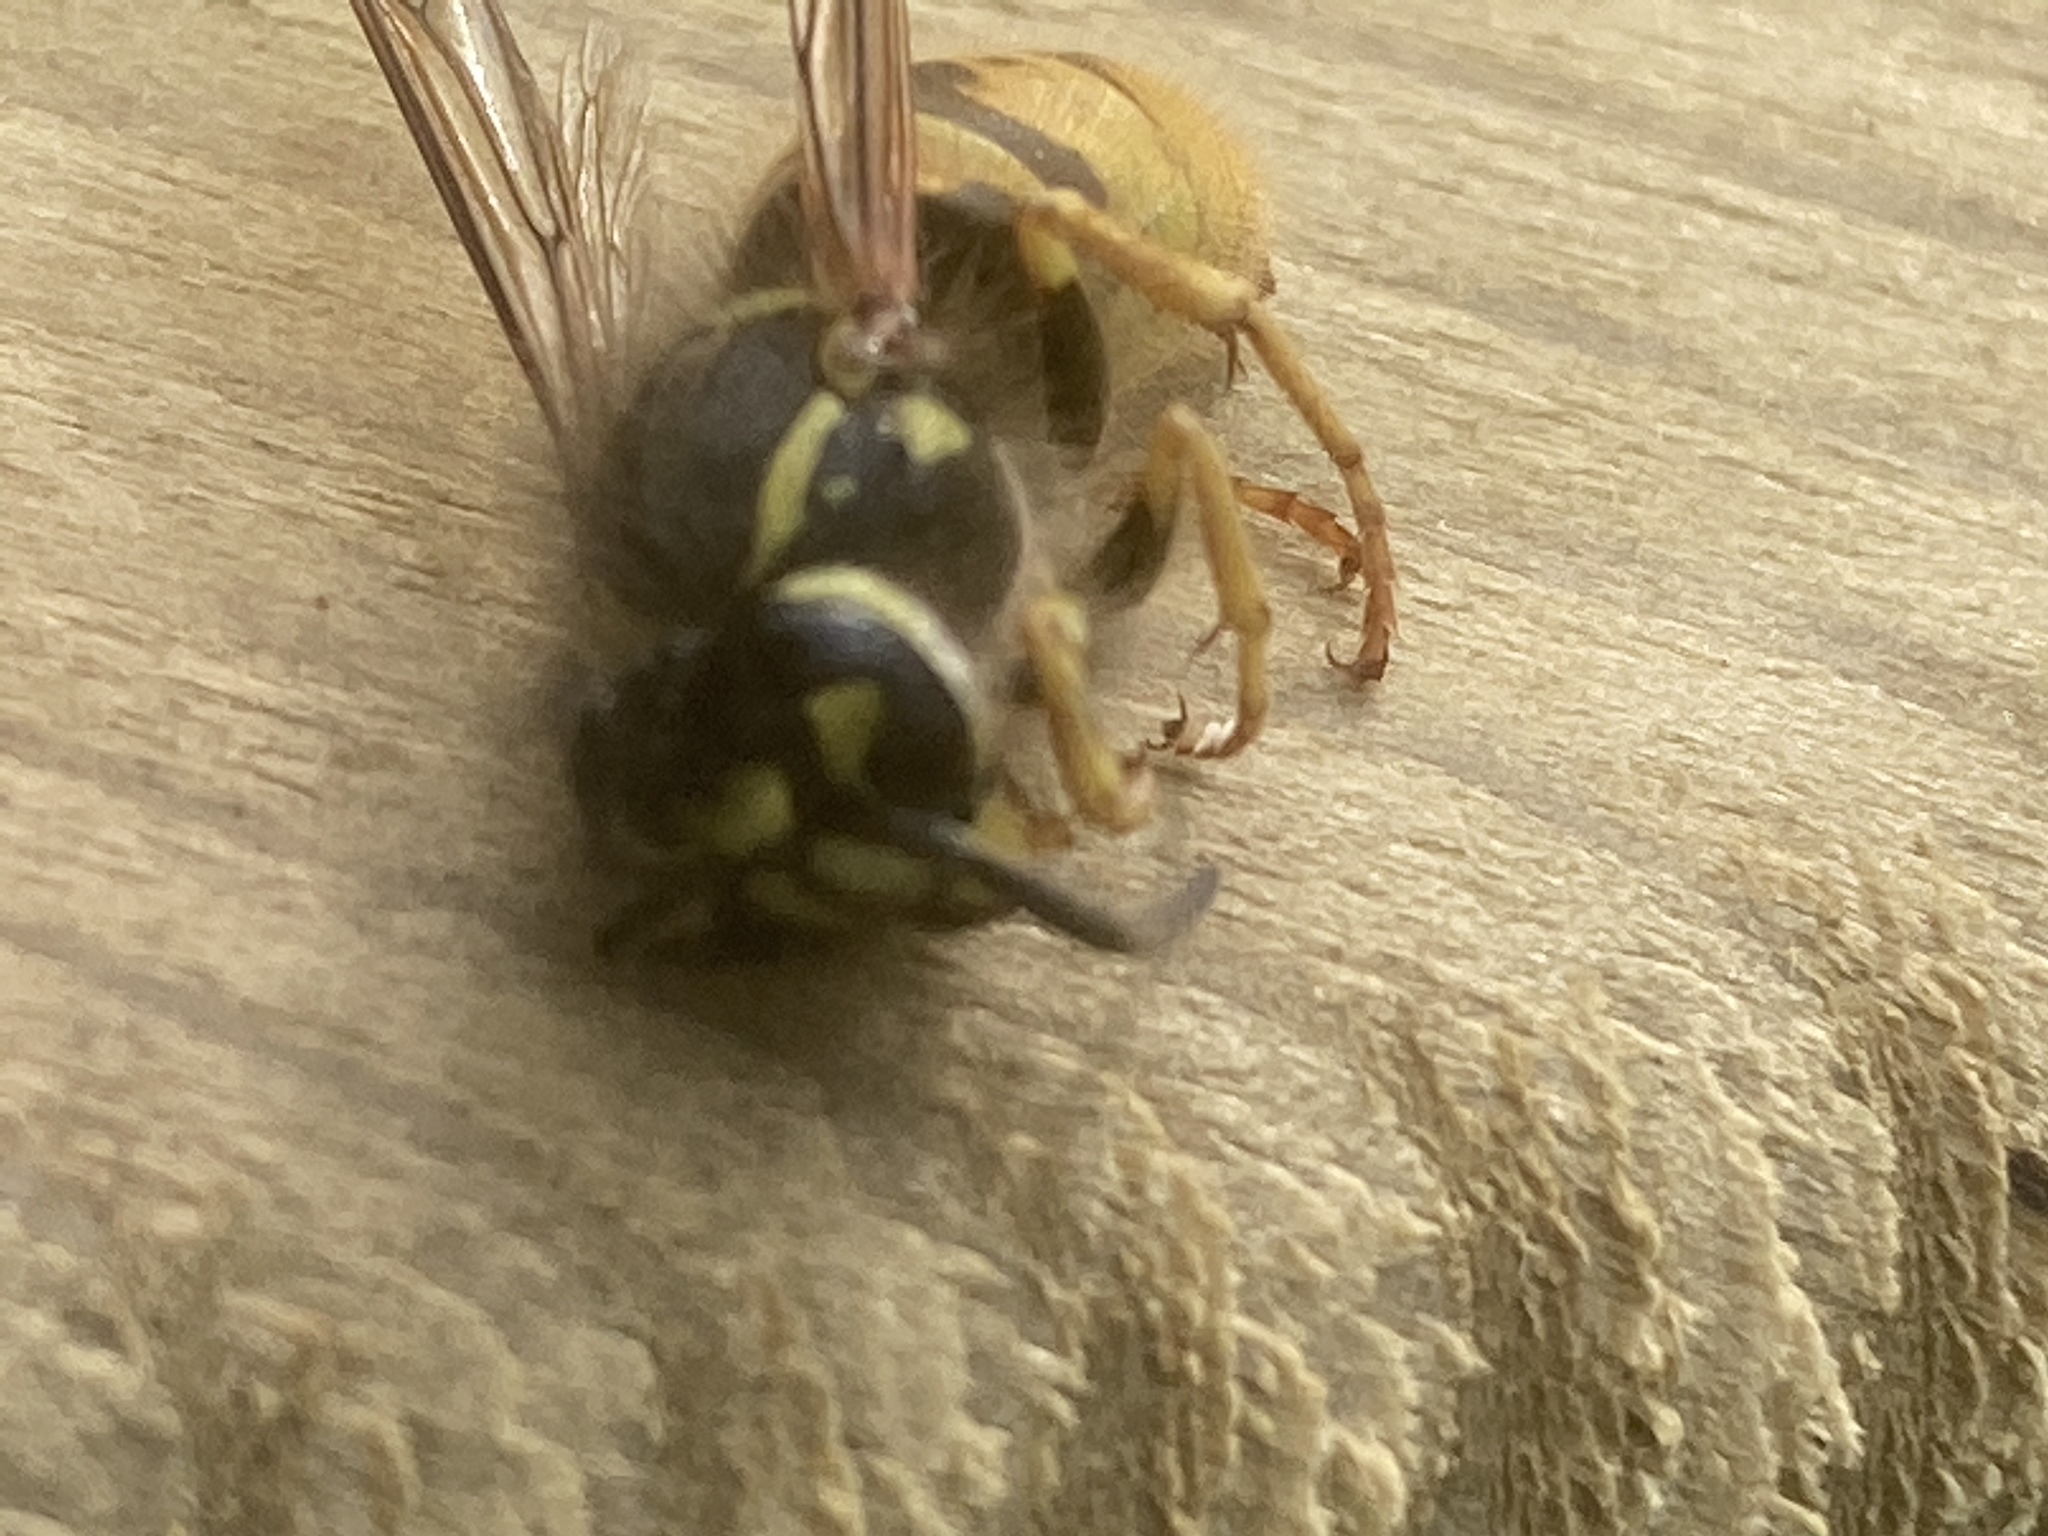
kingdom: Animalia
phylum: Arthropoda
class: Insecta
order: Hymenoptera
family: Vespidae
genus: Vespula
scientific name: Vespula vulgaris
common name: Common wasp
